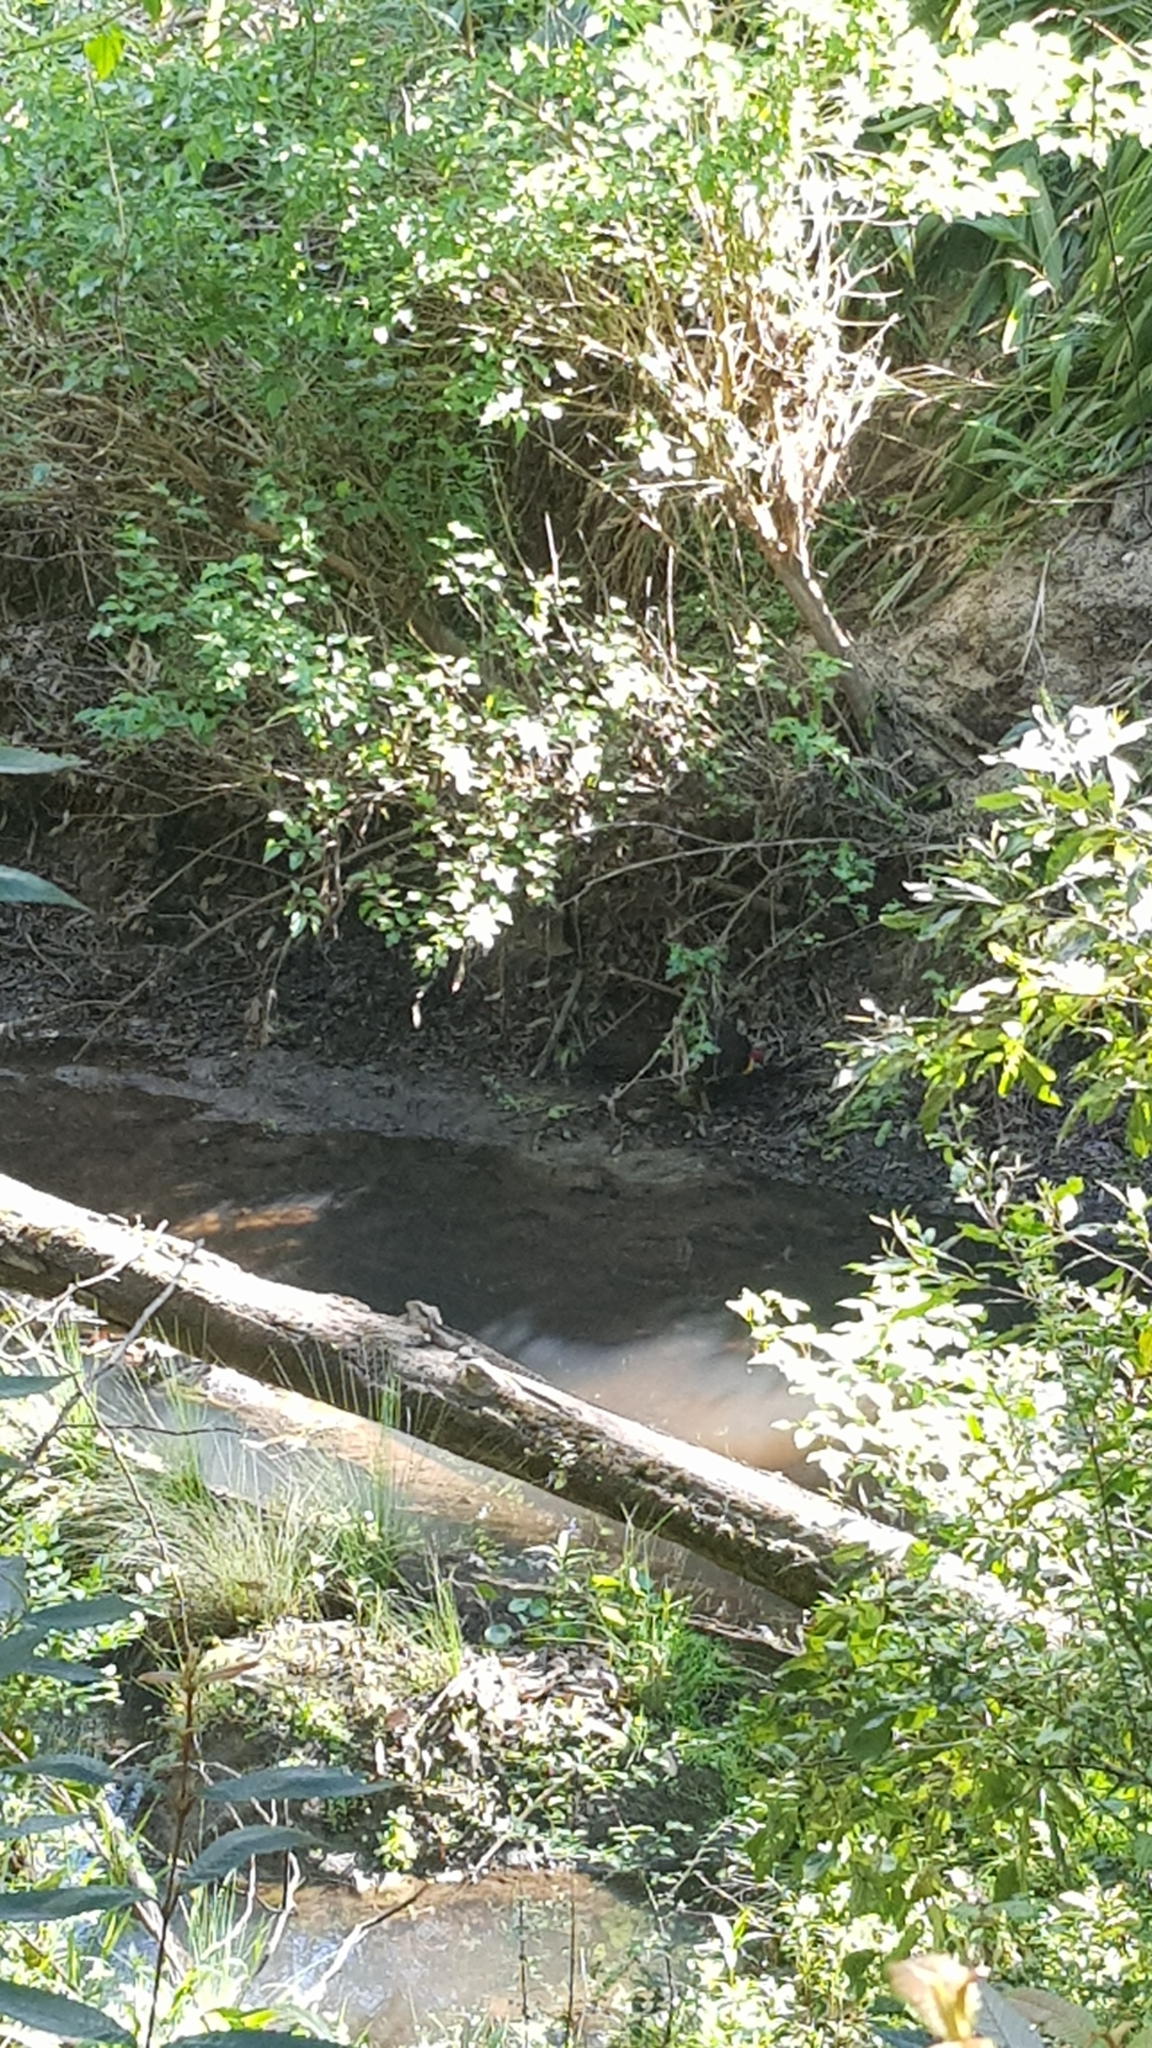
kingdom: Animalia
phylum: Chordata
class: Aves
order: Galliformes
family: Megapodiidae
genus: Alectura
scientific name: Alectura lathami
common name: Australian brushturkey
